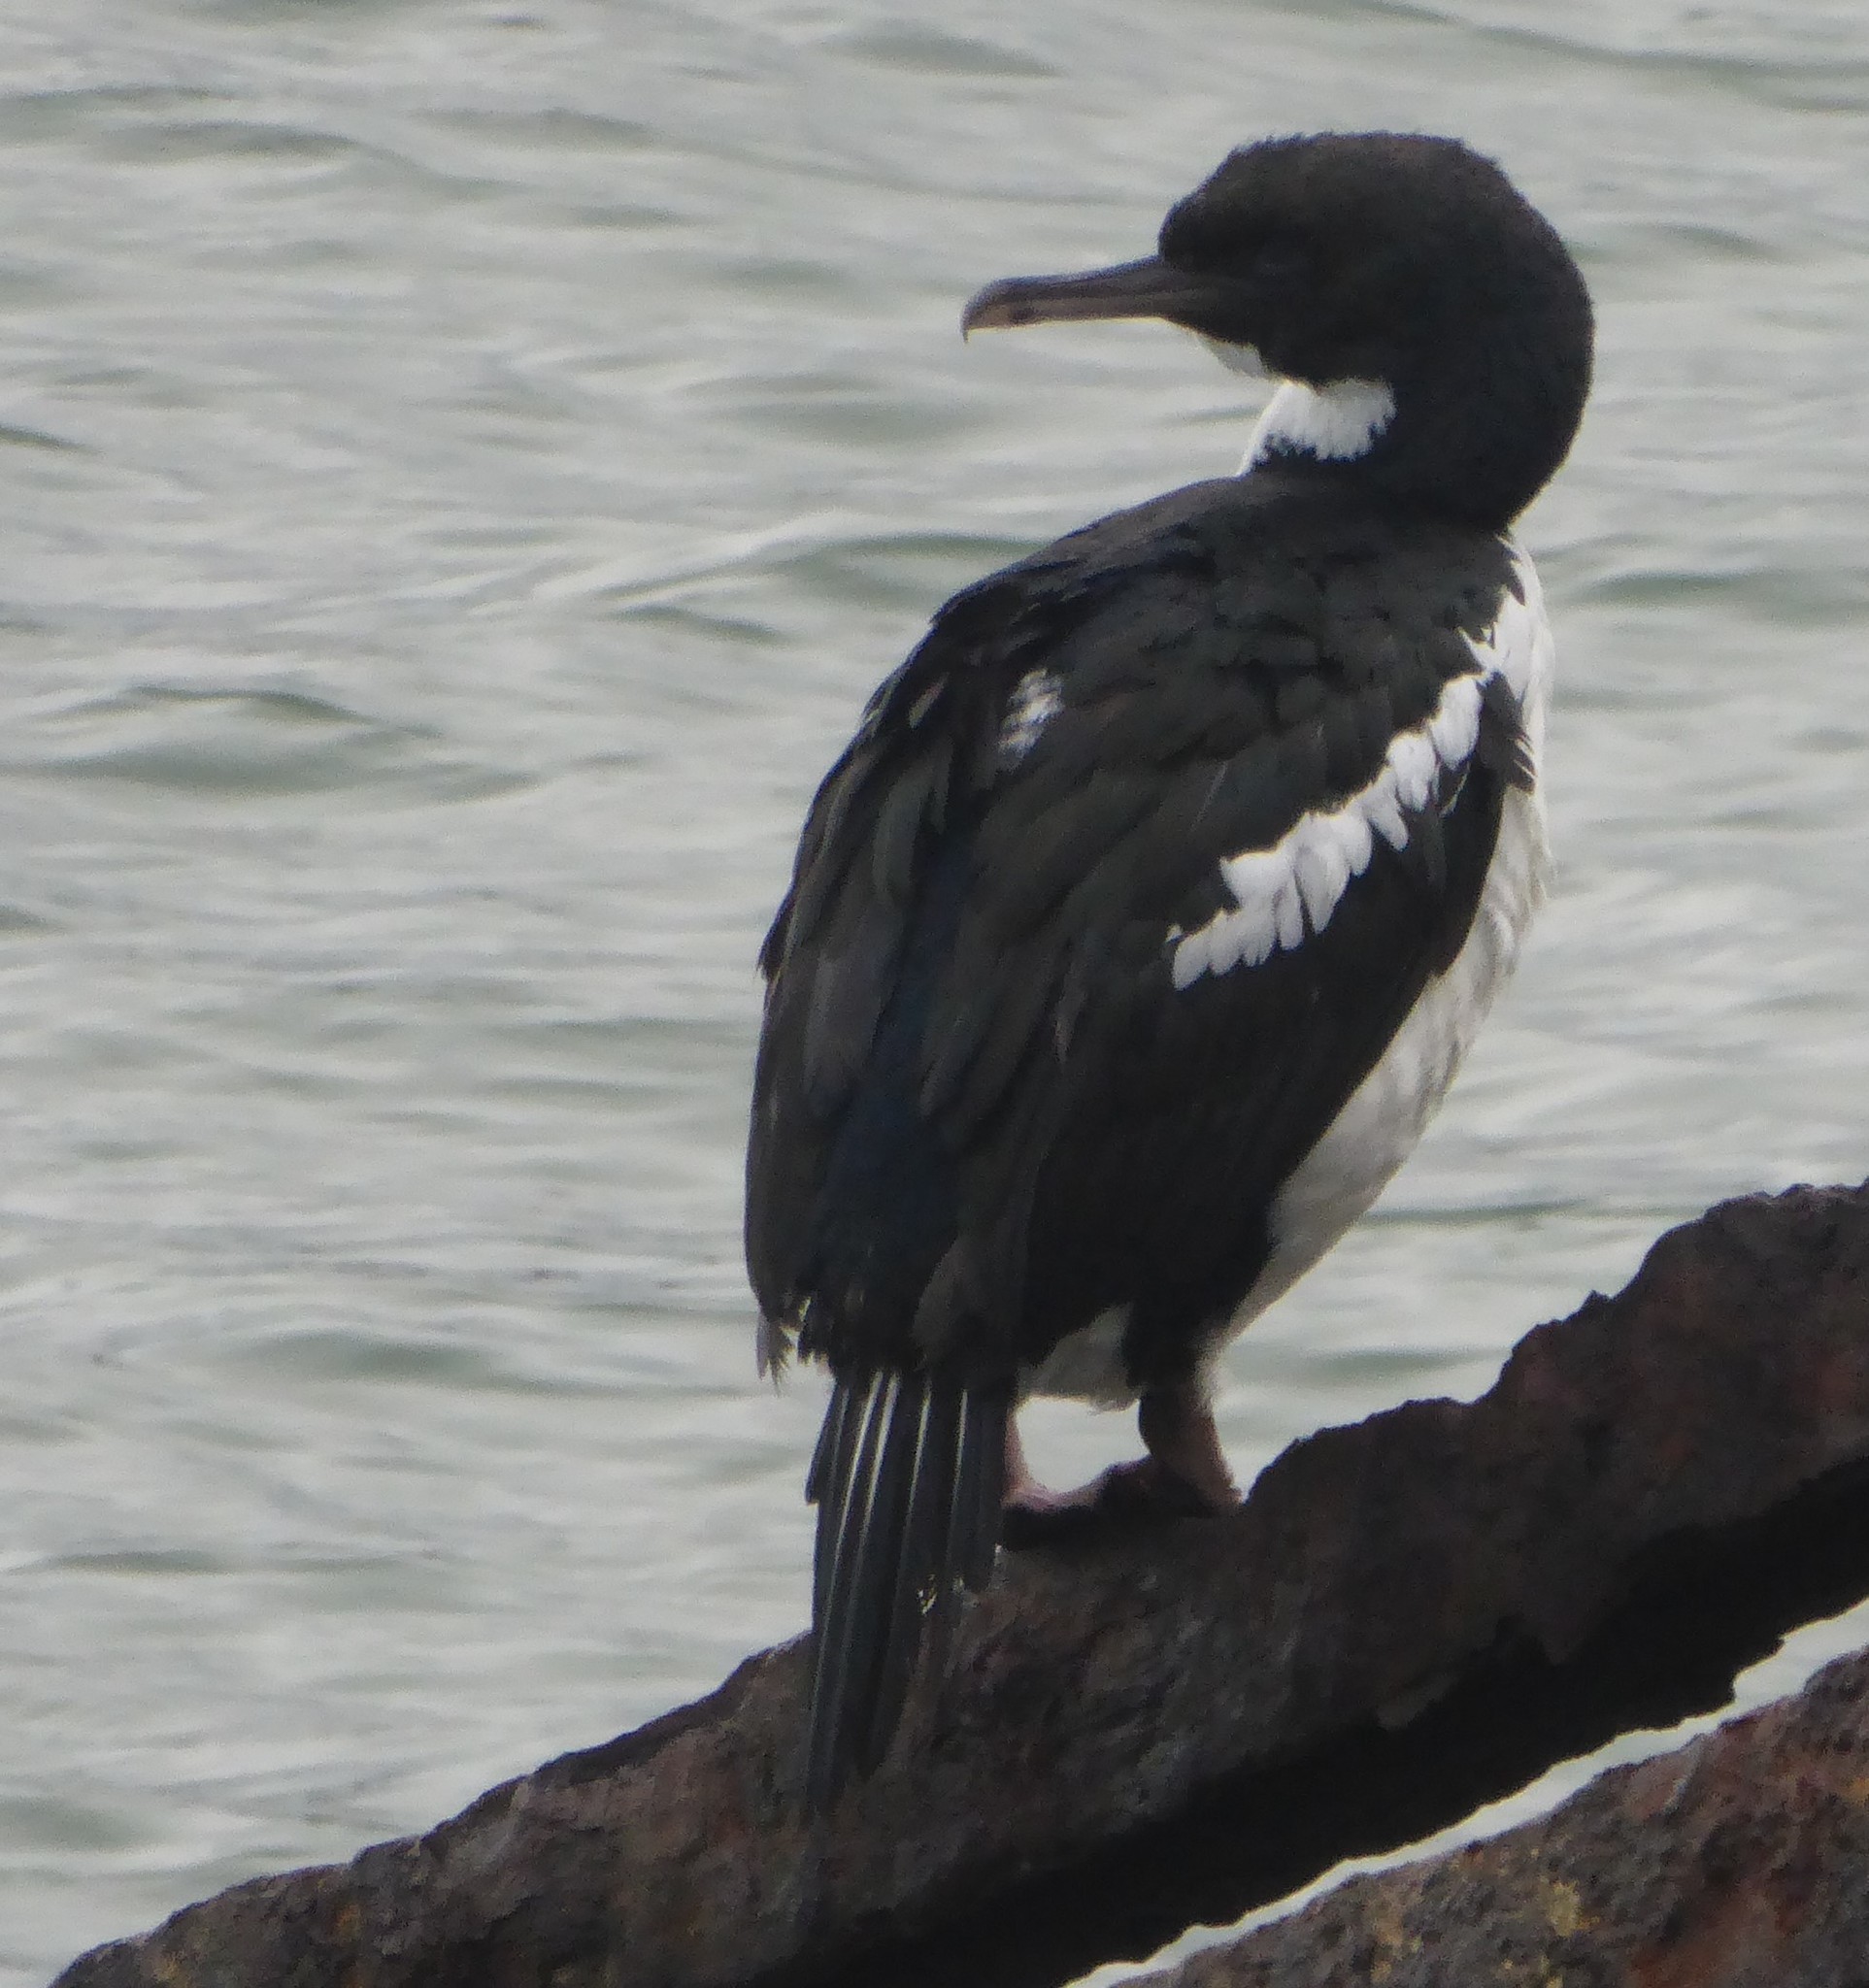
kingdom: Animalia
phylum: Chordata
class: Aves
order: Suliformes
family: Phalacrocoracidae
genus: Leucocarbo
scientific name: Leucocarbo chalconotus
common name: Stewart shag
